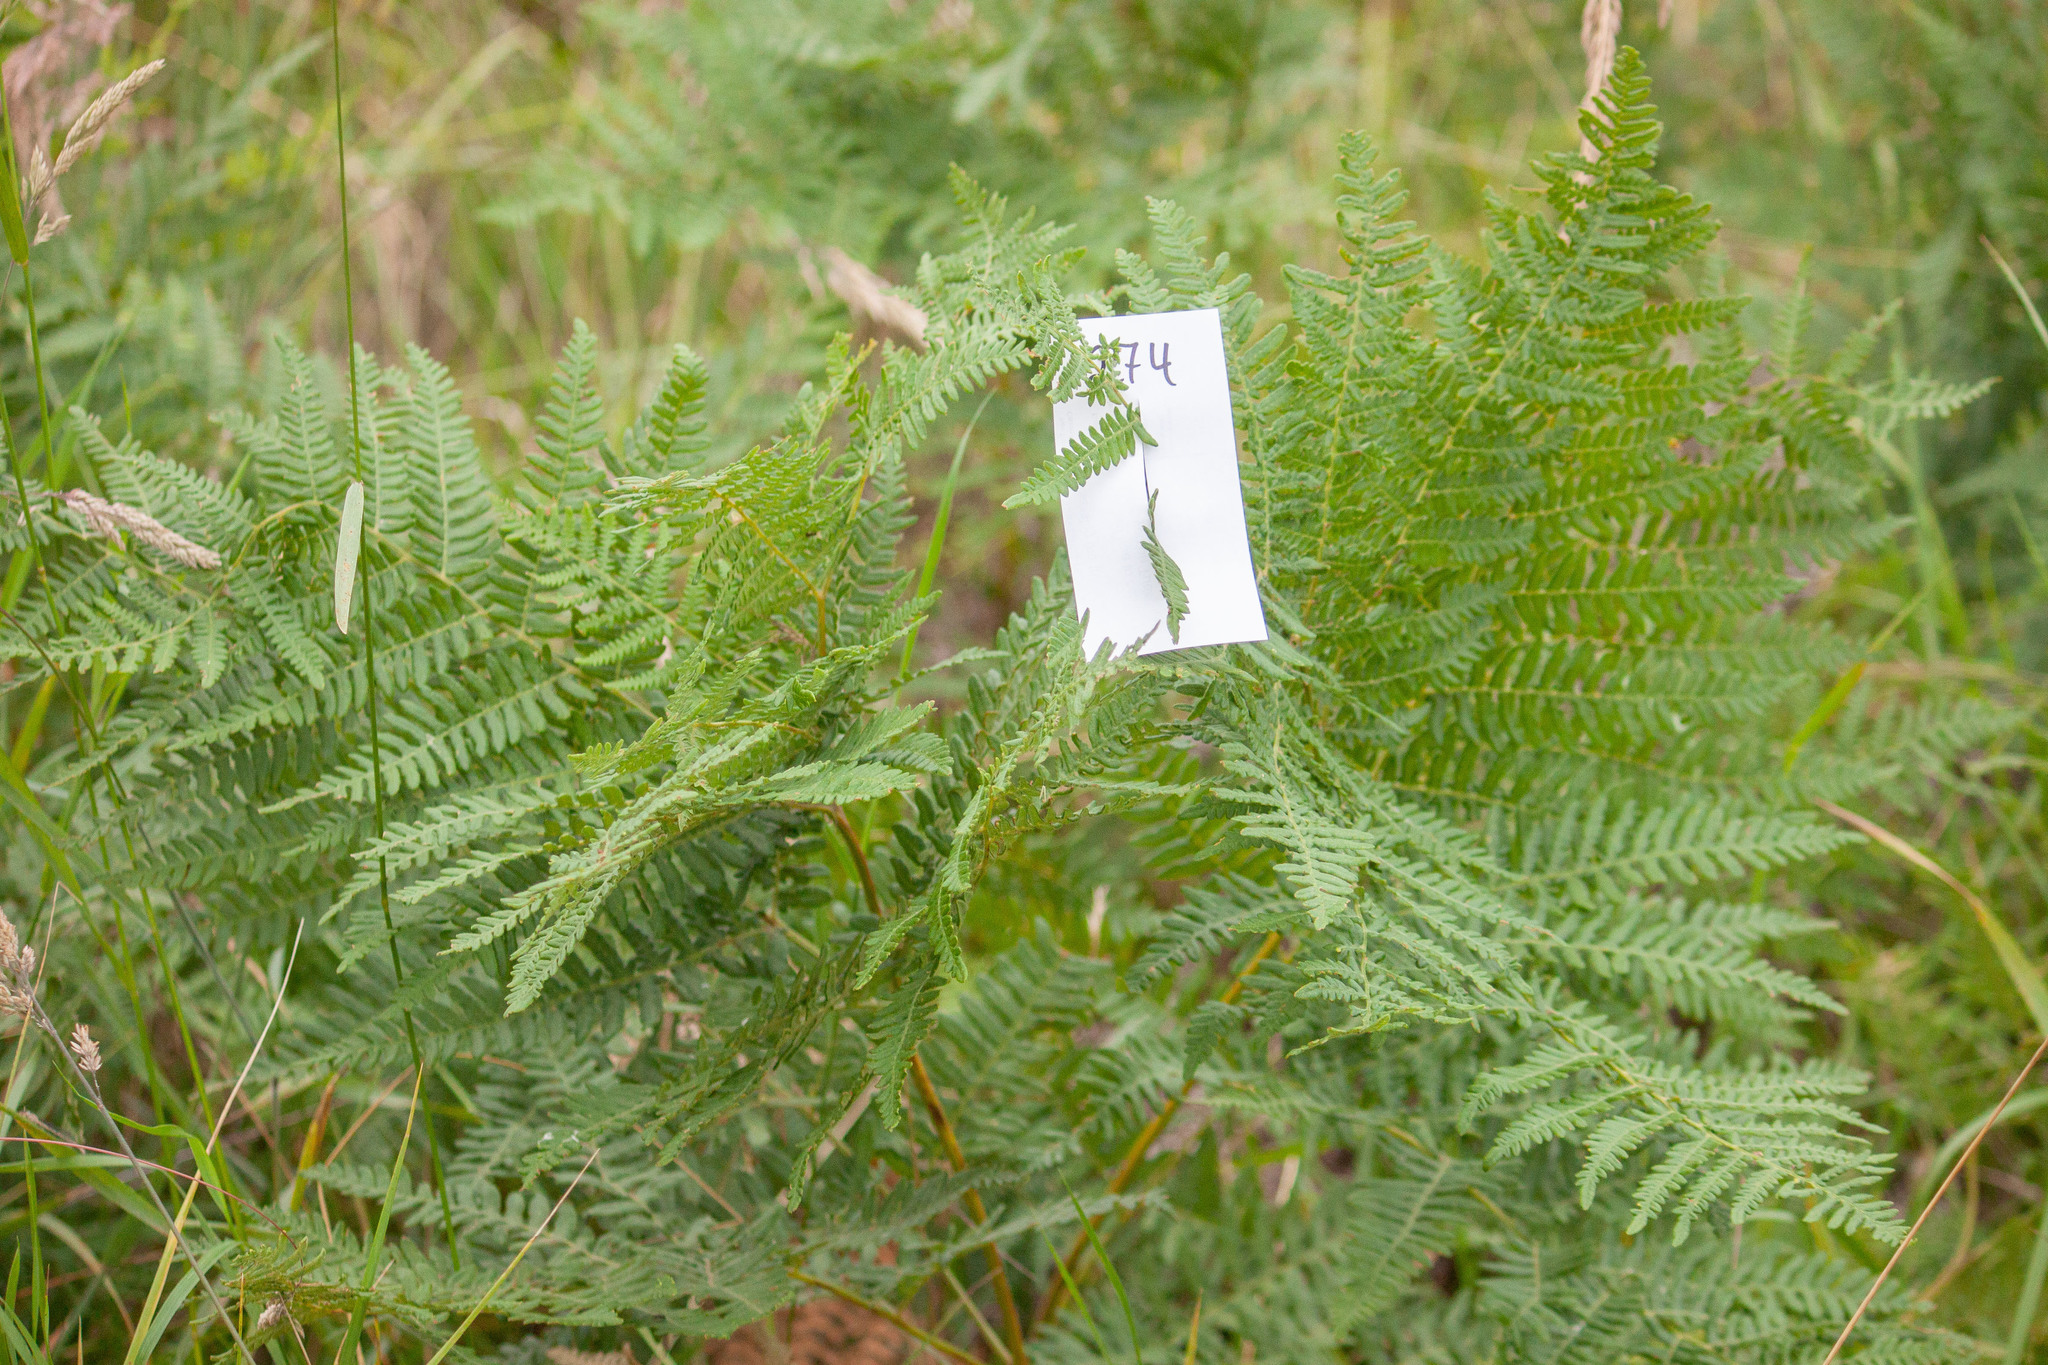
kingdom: Plantae
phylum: Tracheophyta
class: Polypodiopsida
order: Polypodiales
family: Dennstaedtiaceae
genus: Pteridium
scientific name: Pteridium aquilinum
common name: Bracken
